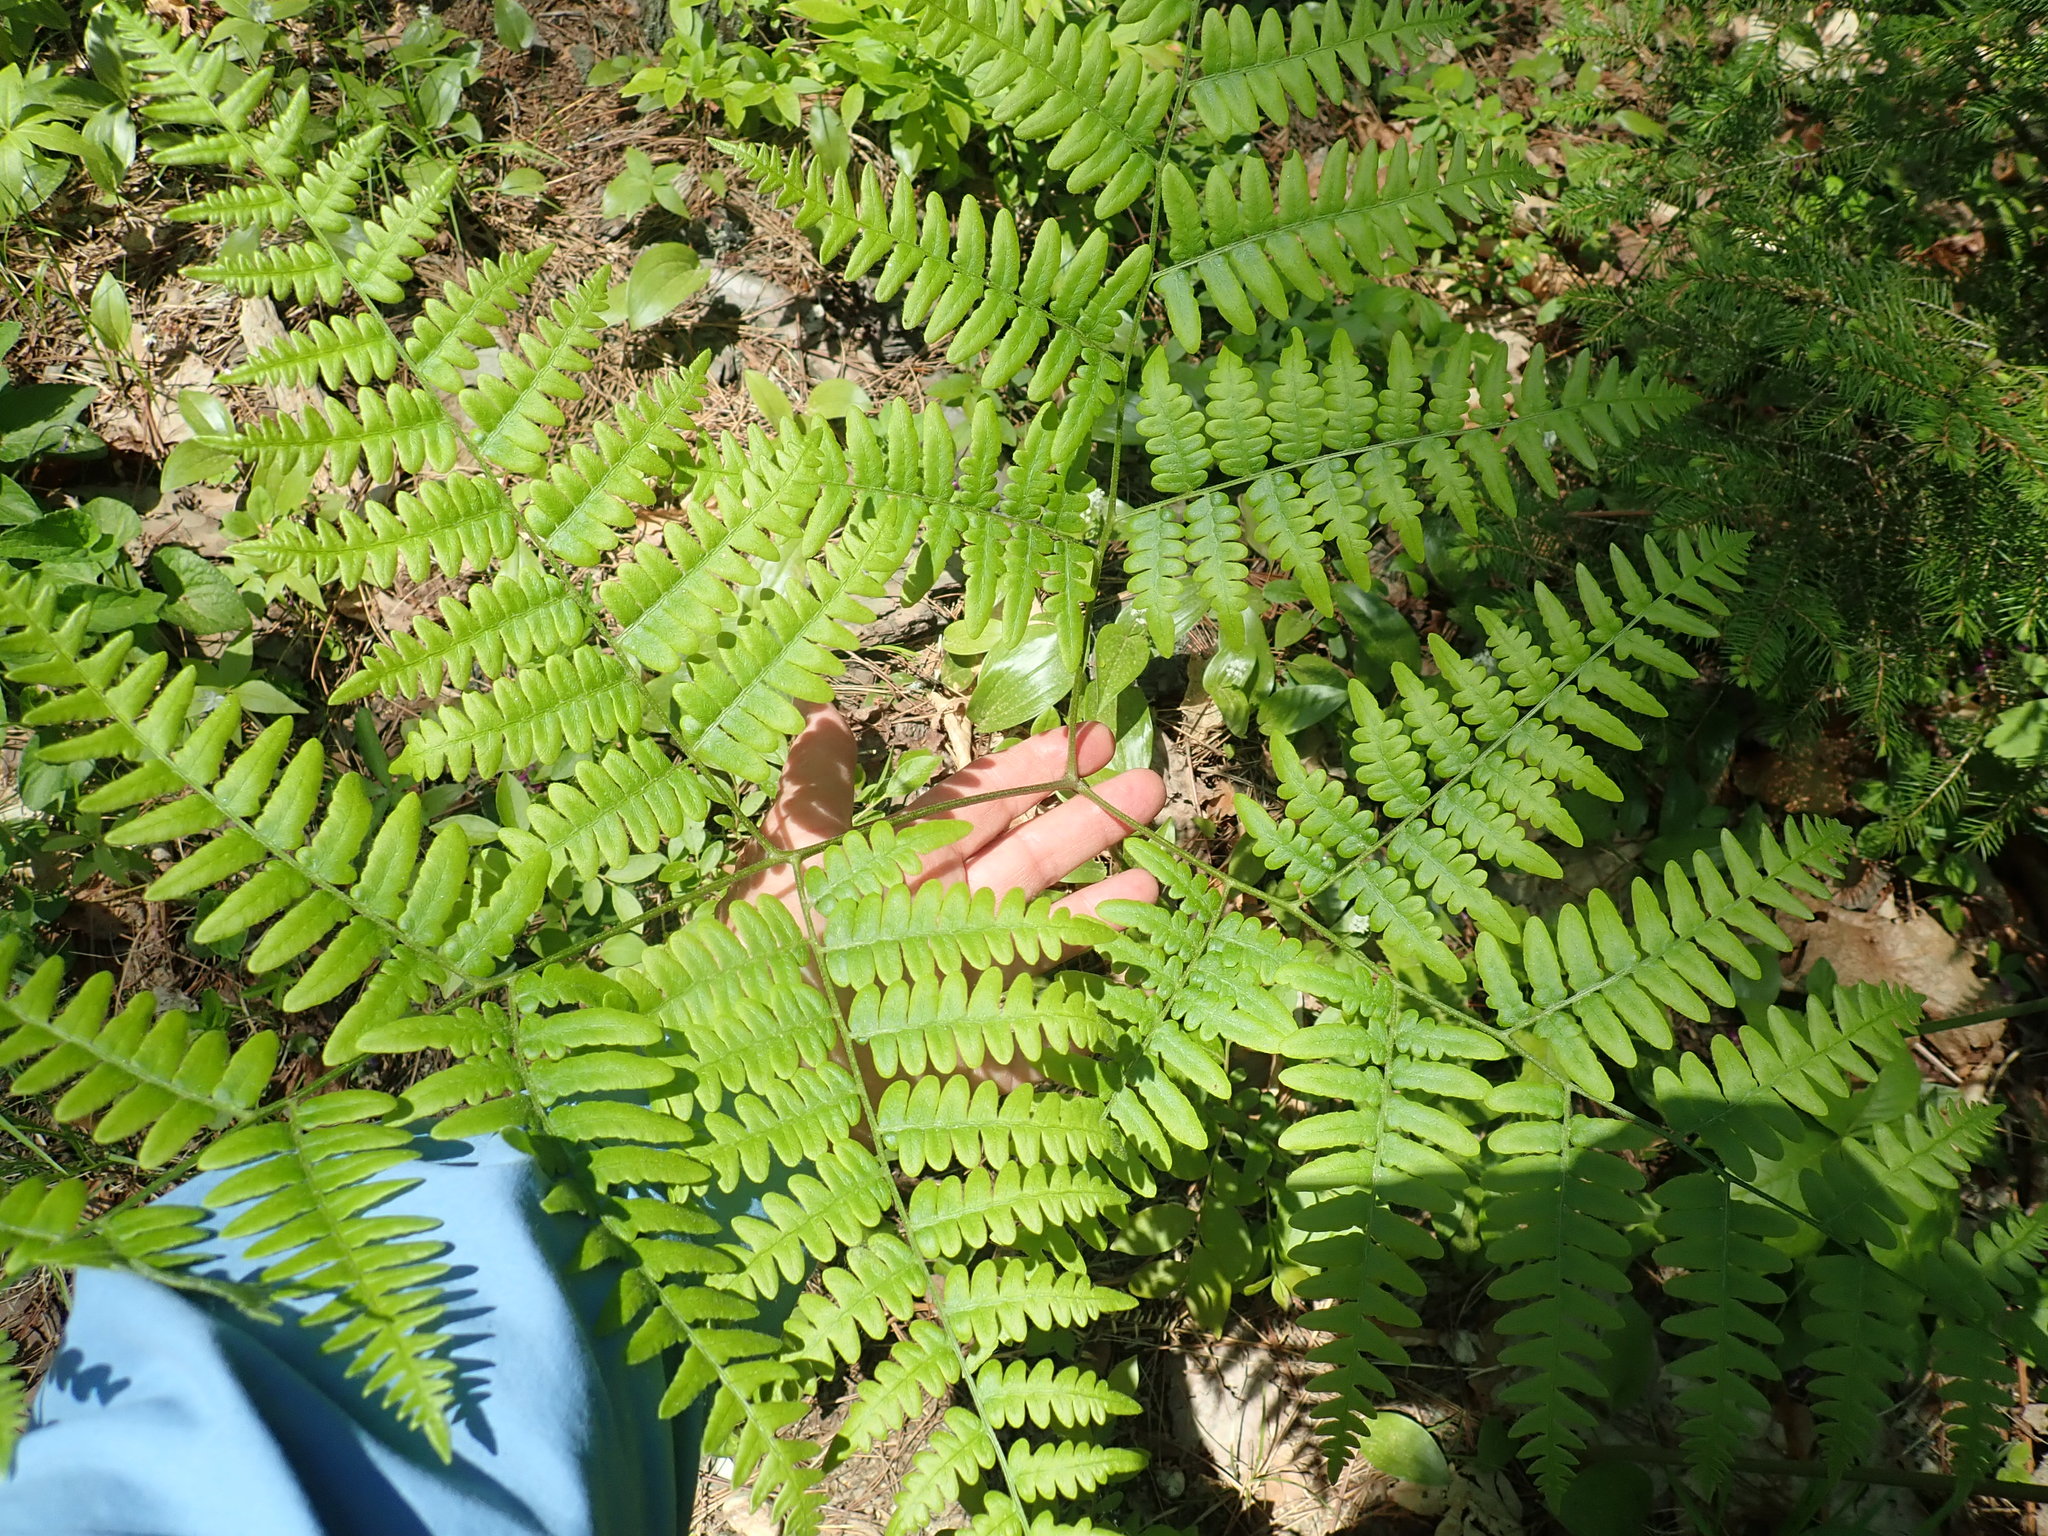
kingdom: Plantae
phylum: Tracheophyta
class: Polypodiopsida
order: Polypodiales
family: Dennstaedtiaceae
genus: Pteridium
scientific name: Pteridium aquilinum
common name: Bracken
